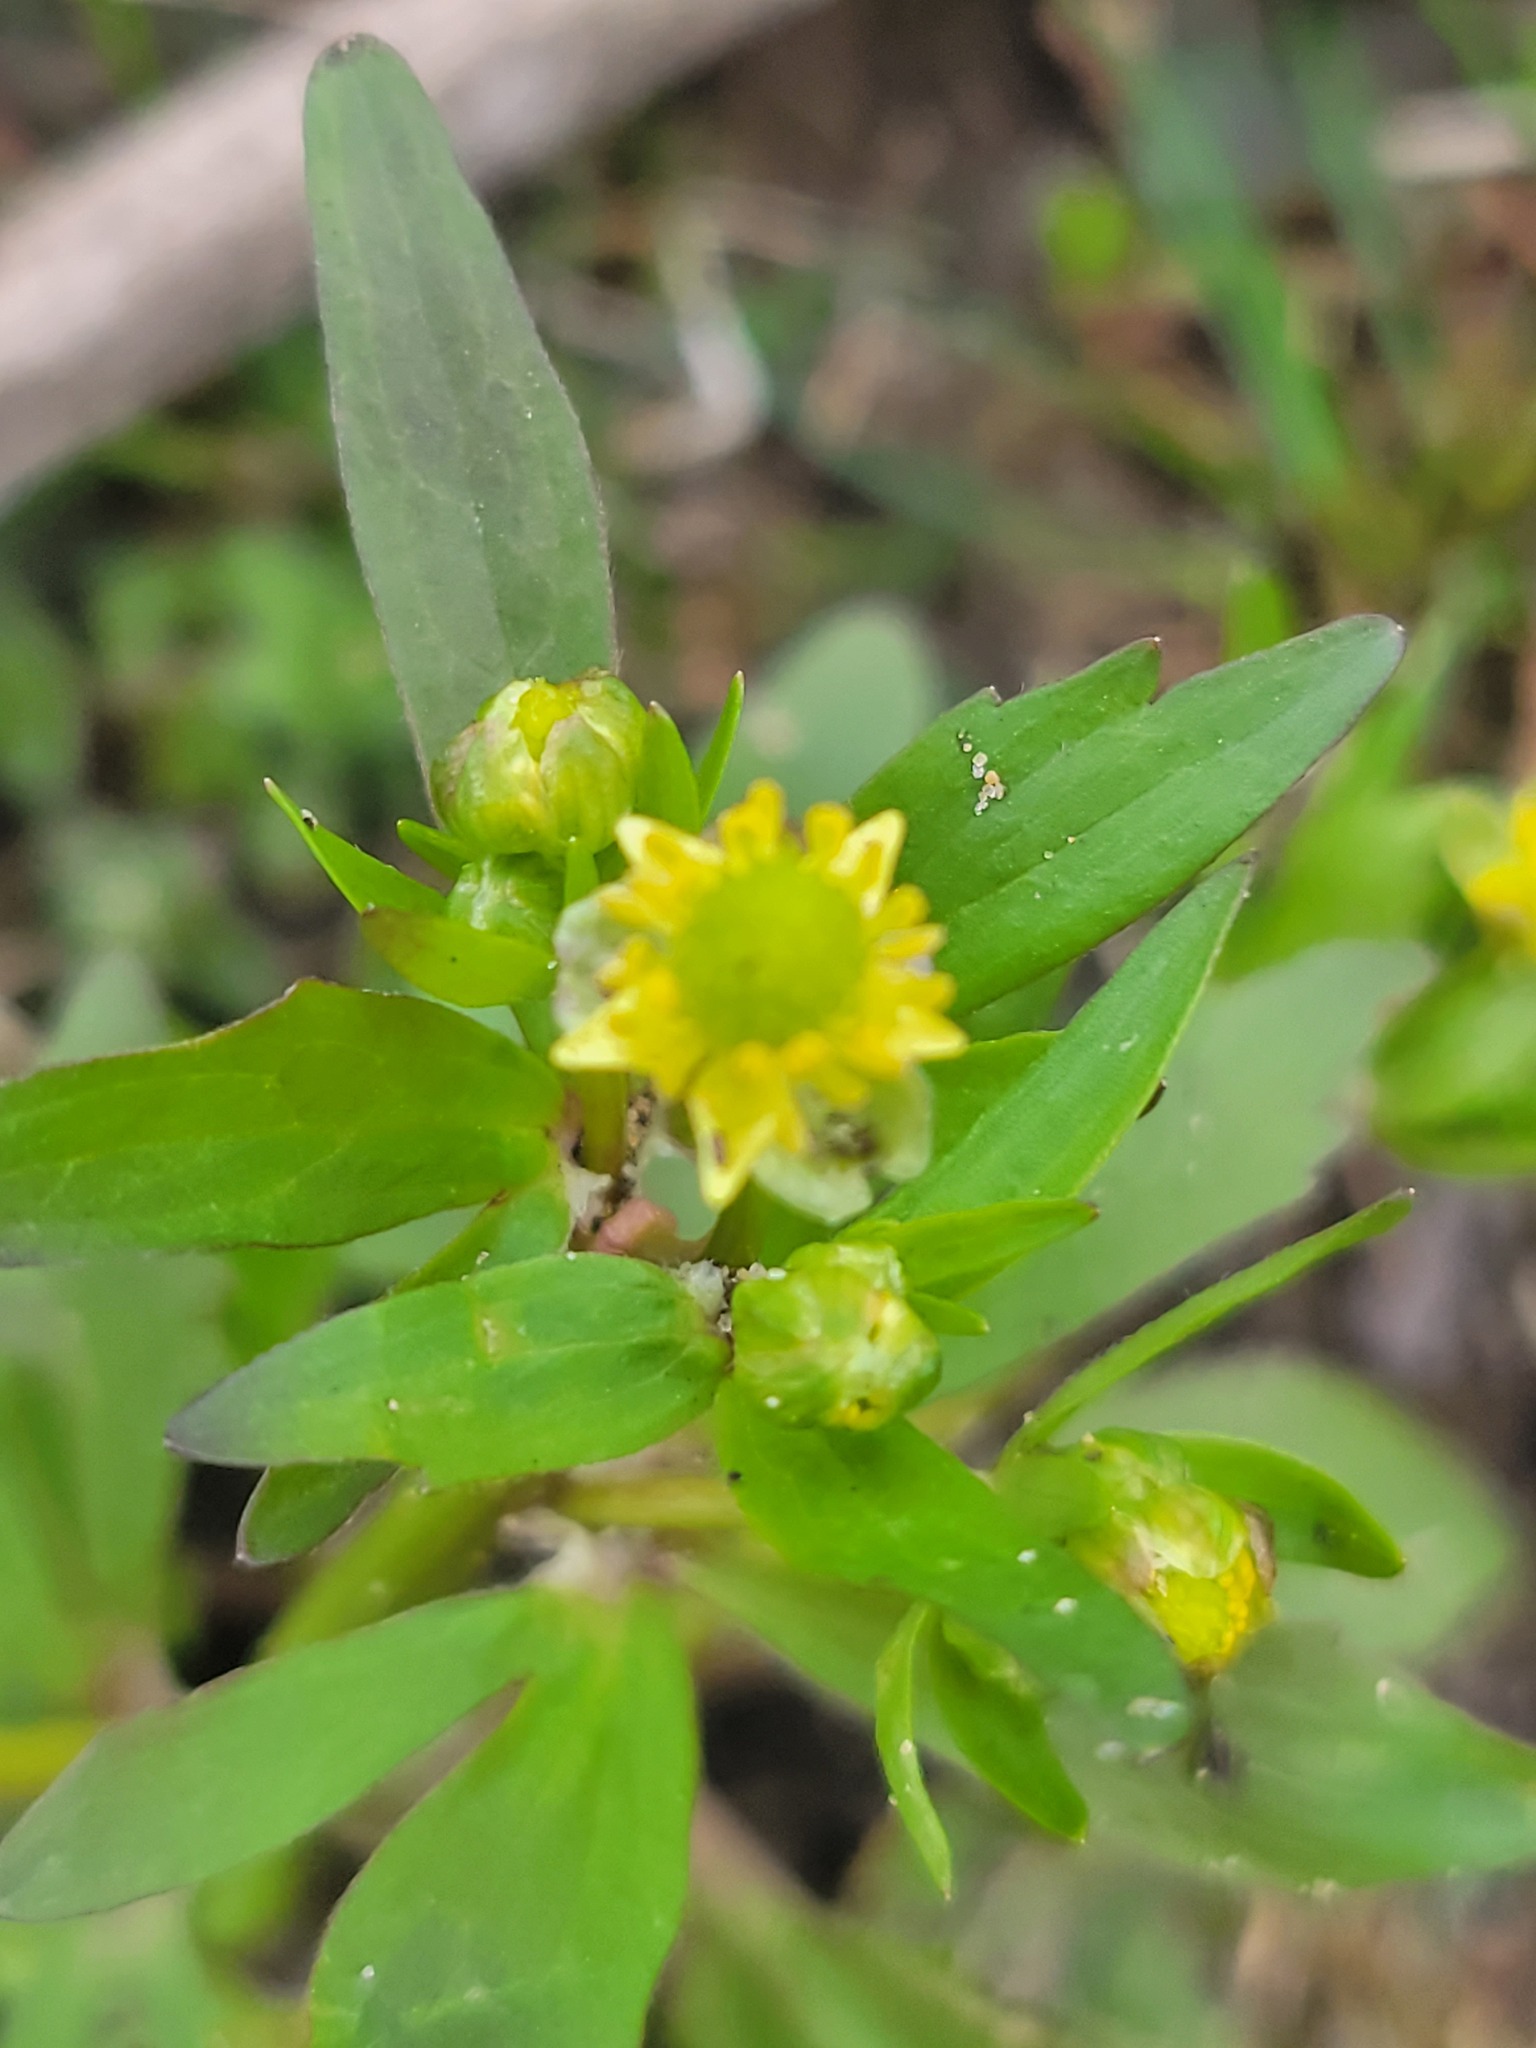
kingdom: Plantae
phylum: Tracheophyta
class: Magnoliopsida
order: Ranunculales
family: Ranunculaceae
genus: Ranunculus
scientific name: Ranunculus abortivus
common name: Early wood buttercup
